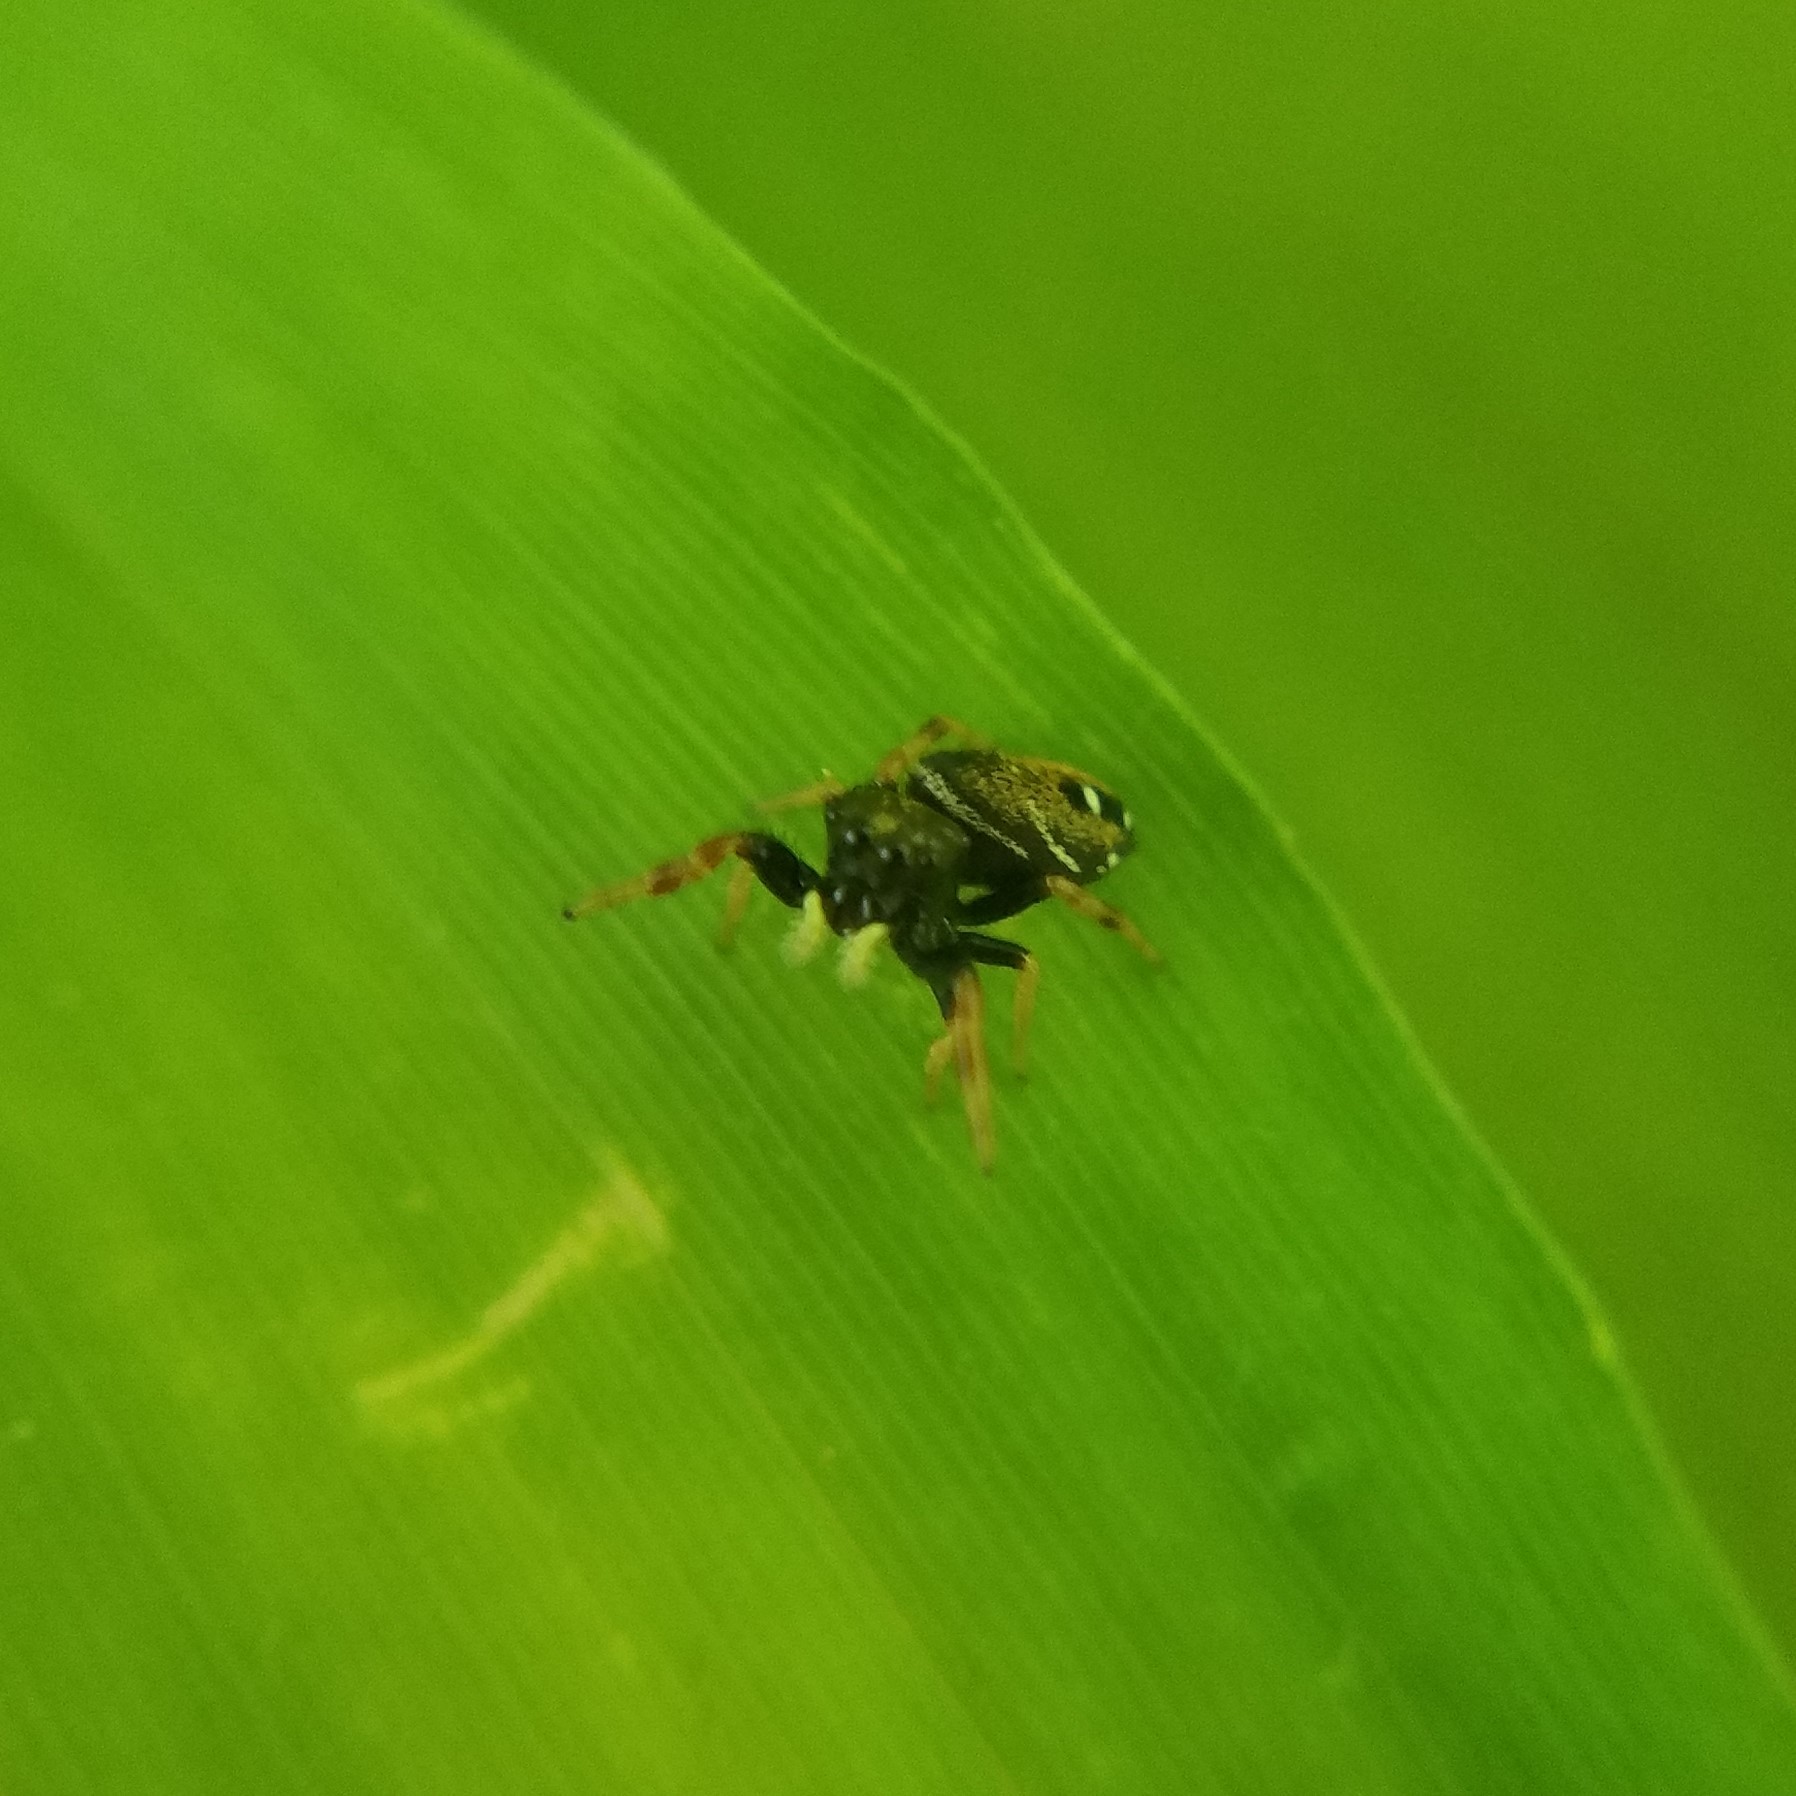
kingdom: Animalia
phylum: Arthropoda
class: Arachnida
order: Araneae
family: Salticidae
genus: Phidippus
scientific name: Phidippus whitmani
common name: Whitman's jumping spider
